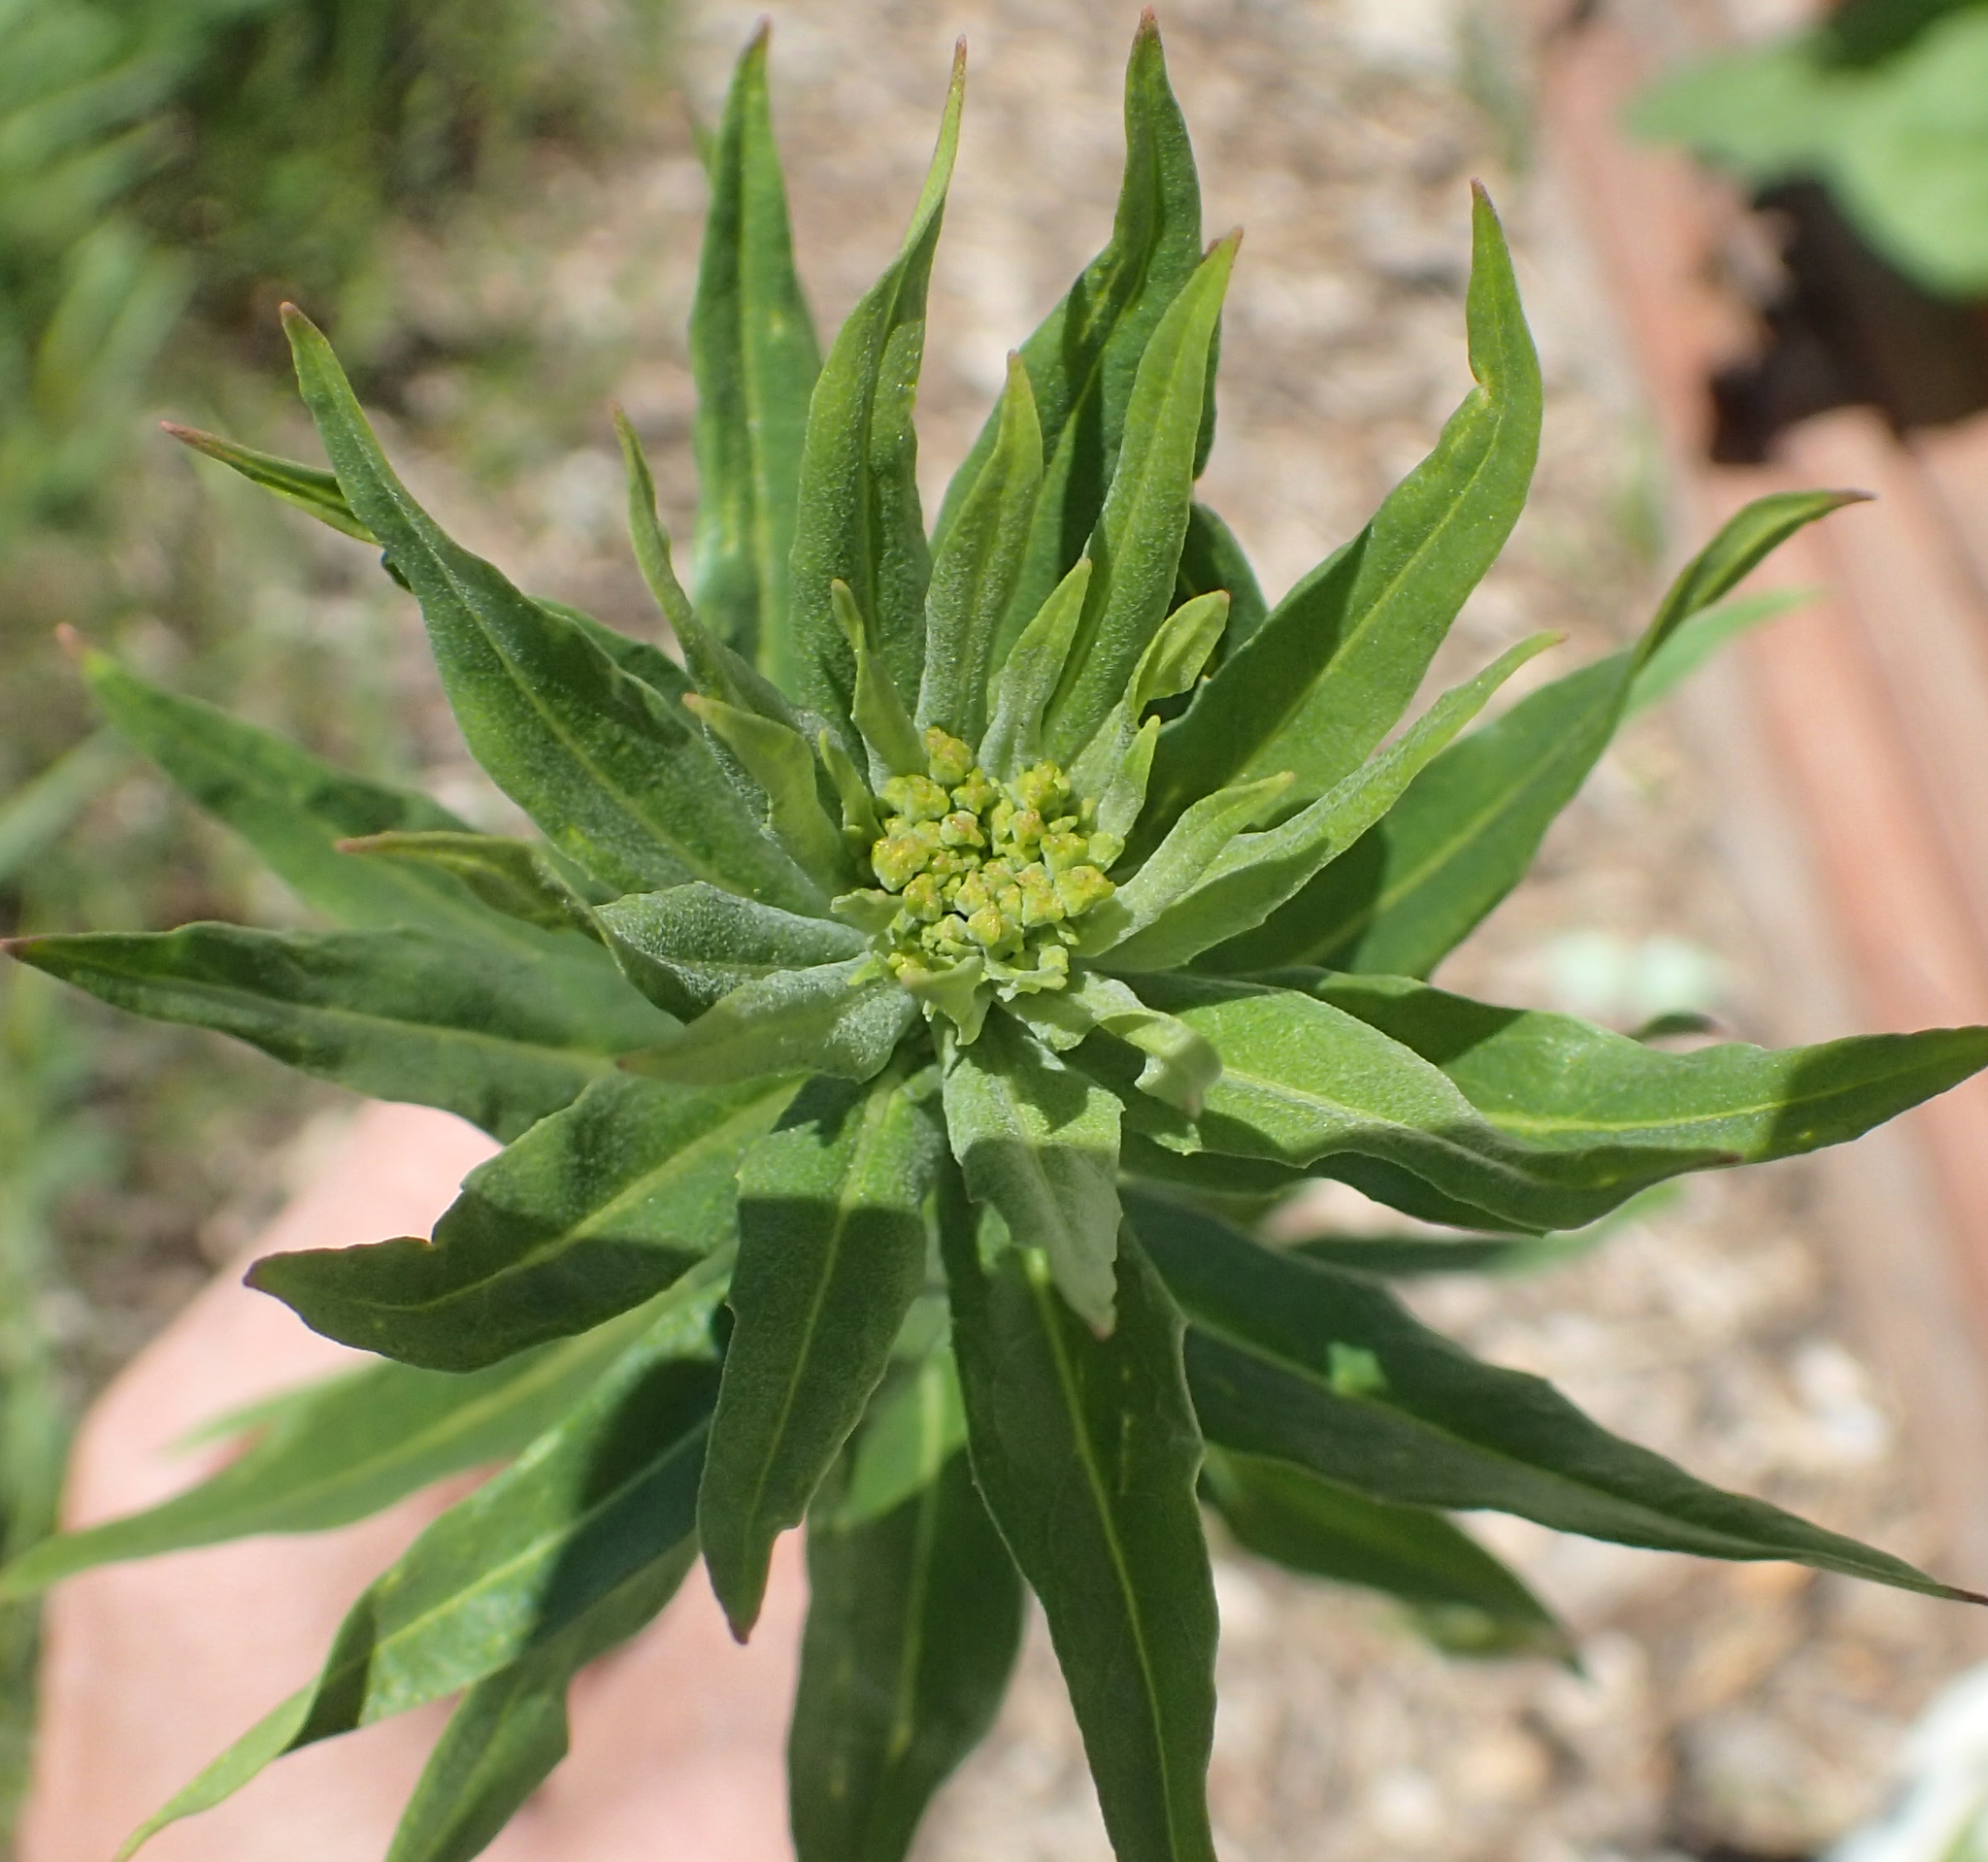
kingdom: Plantae
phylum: Tracheophyta
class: Magnoliopsida
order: Brassicales
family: Brassicaceae
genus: Erysimum
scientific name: Erysimum cheiranthoides
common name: Treacle mustard
